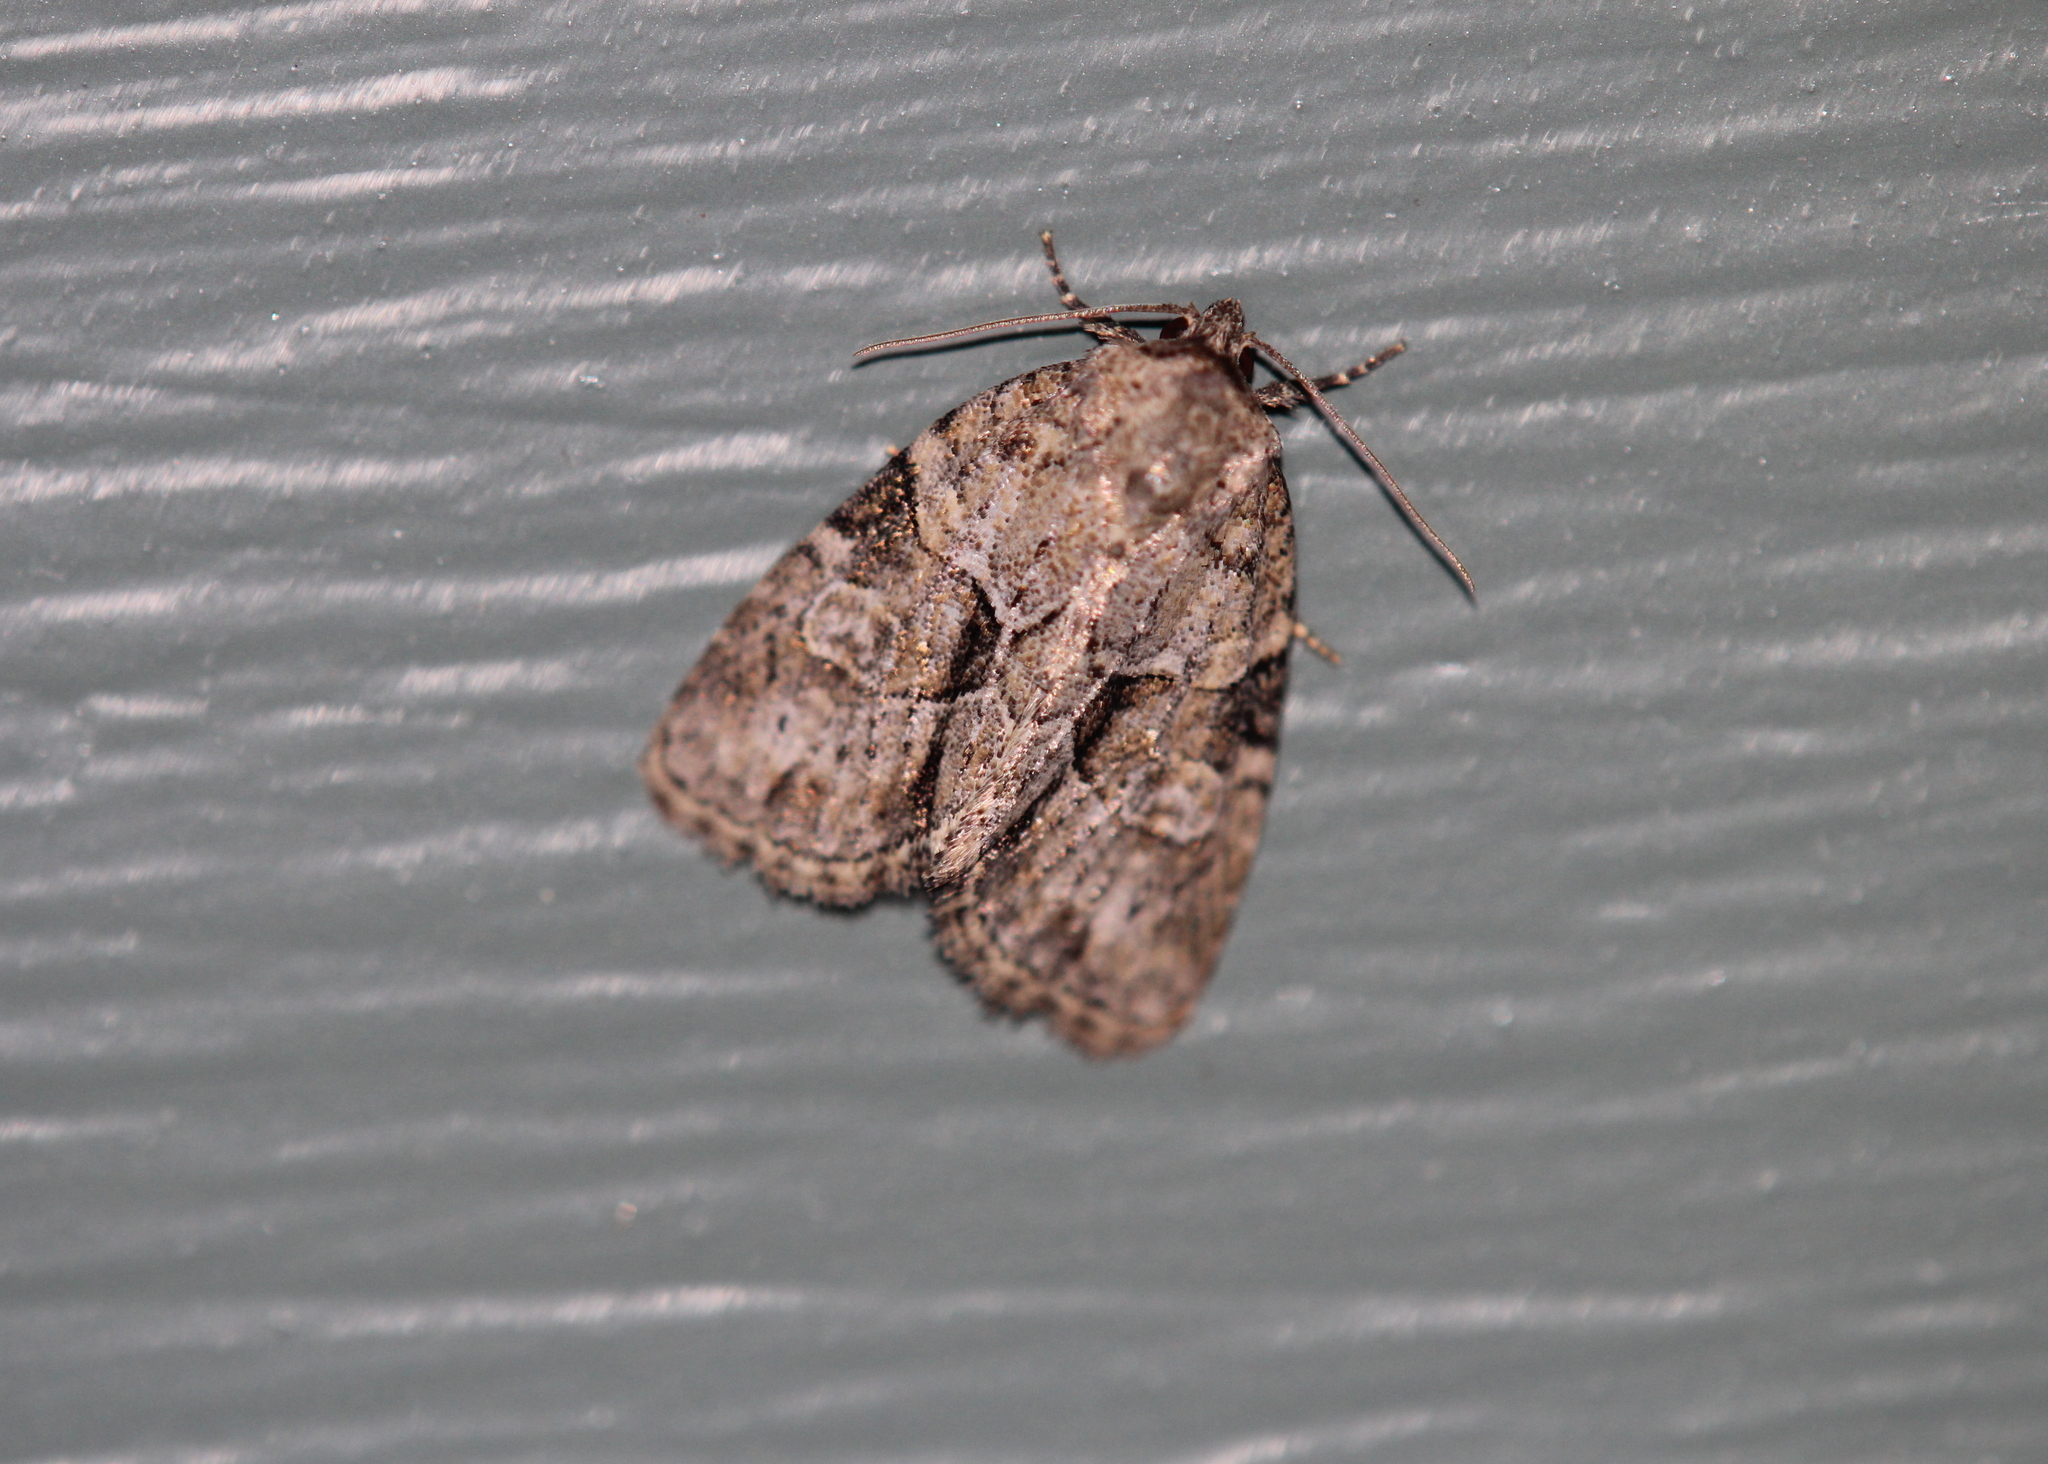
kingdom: Animalia
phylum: Arthropoda
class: Insecta
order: Lepidoptera
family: Noctuidae
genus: Neoligia
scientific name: Neoligia exhausta
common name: Exhausted brocade
